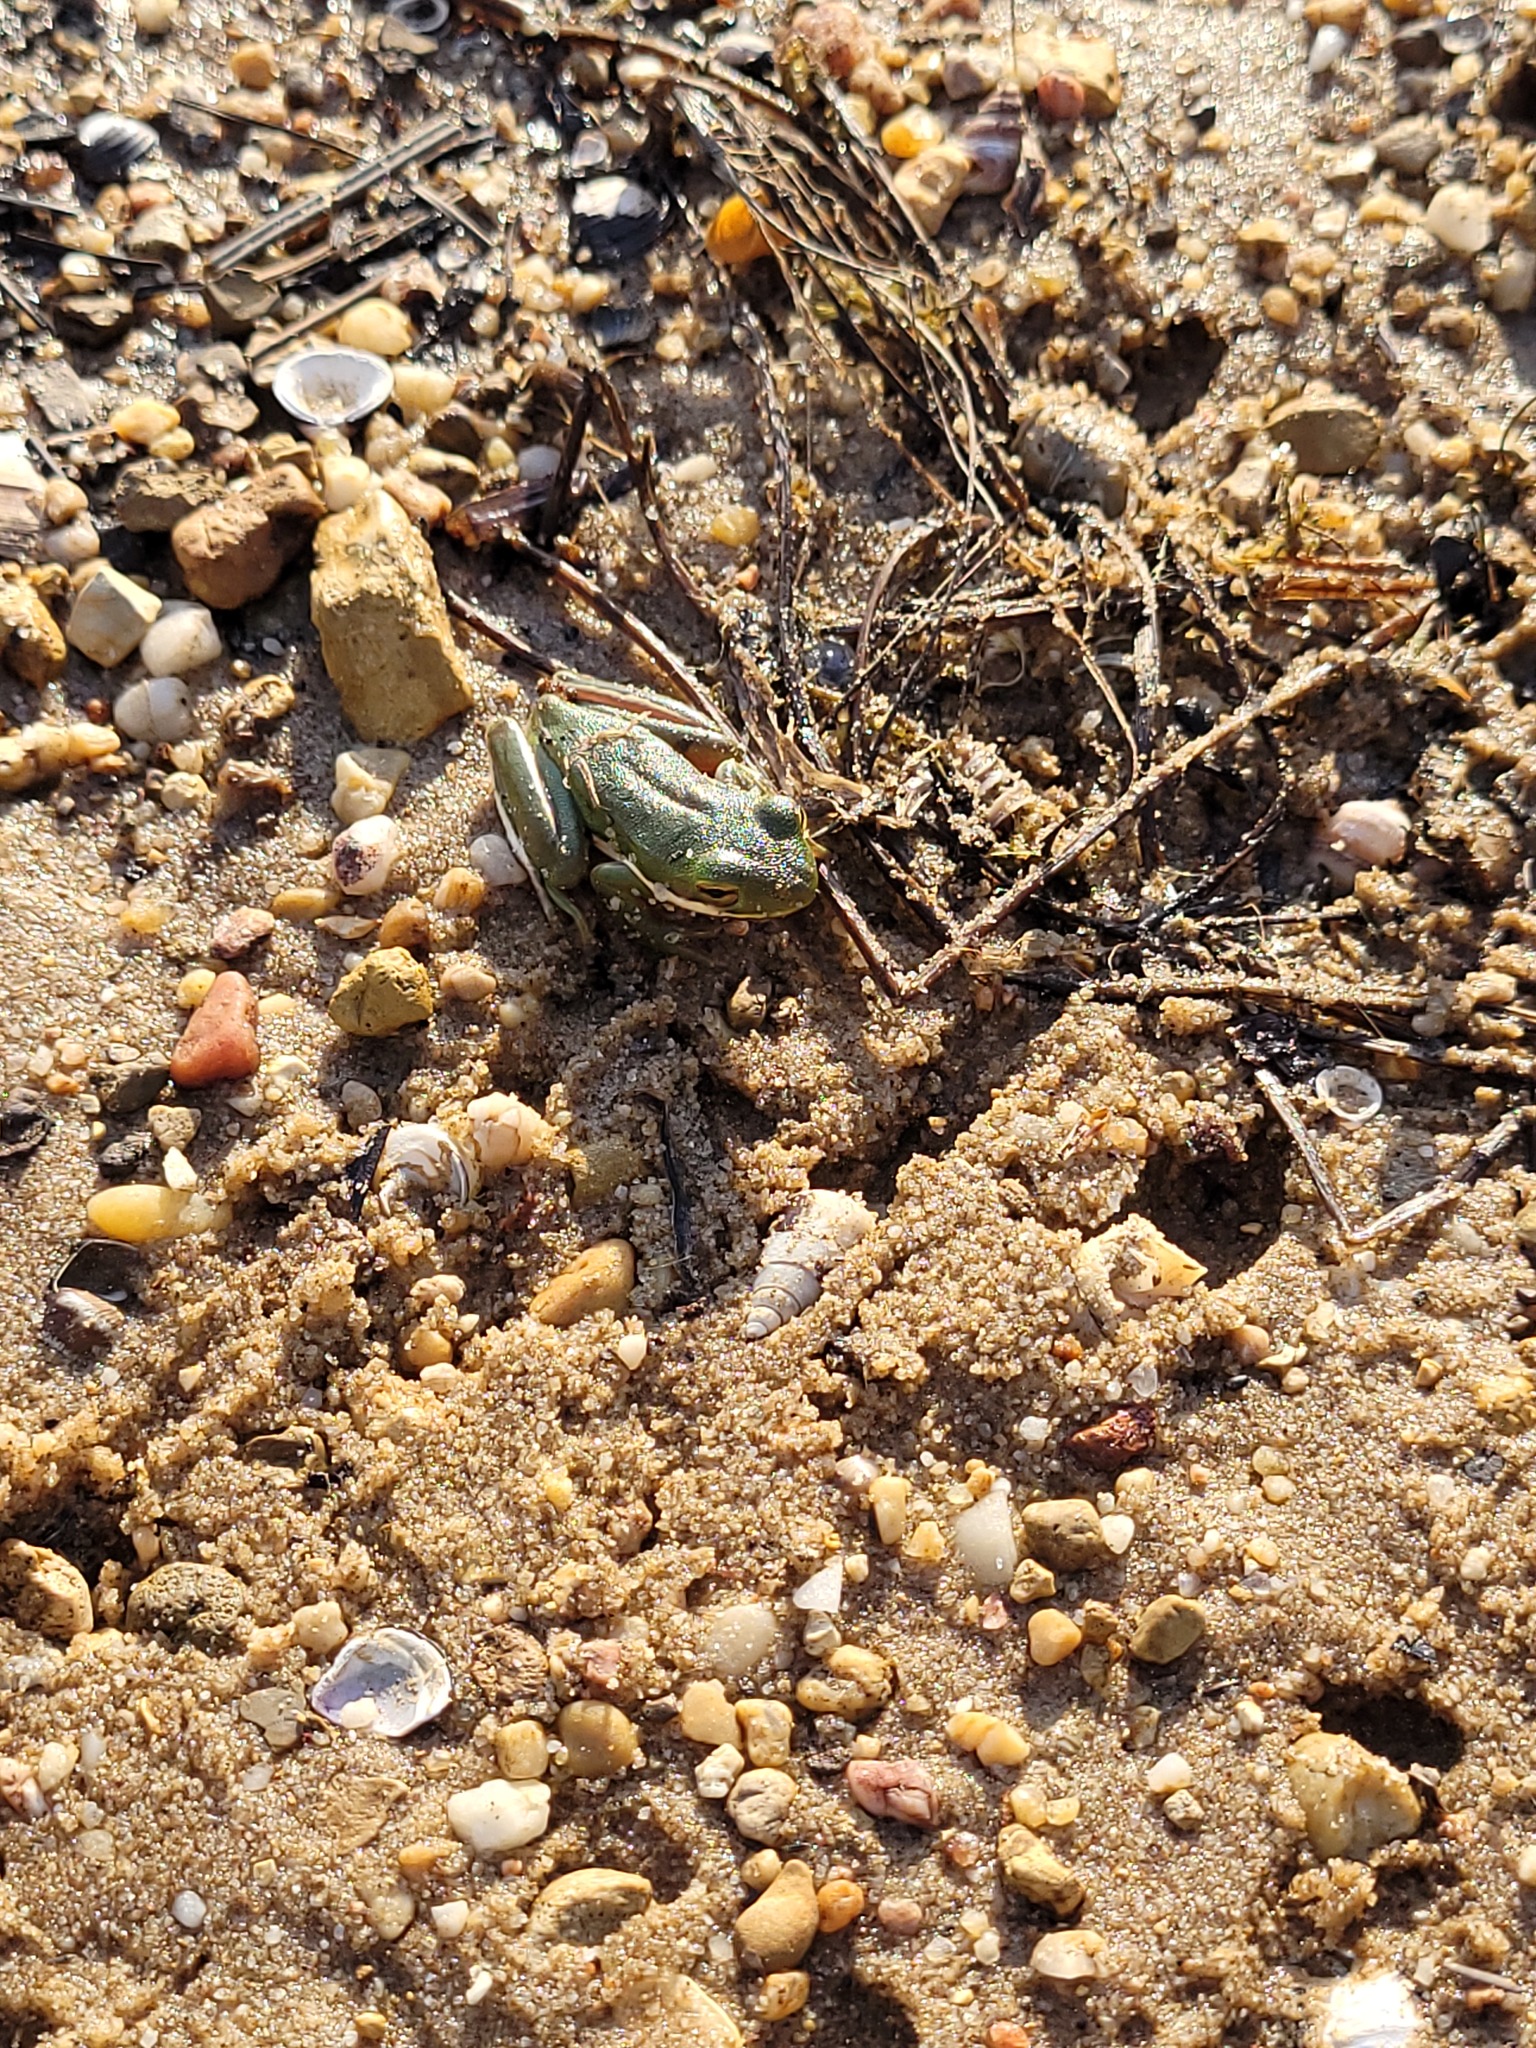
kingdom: Animalia
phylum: Chordata
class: Amphibia
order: Anura
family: Hylidae
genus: Dryophytes
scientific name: Dryophytes cinereus
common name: Green treefrog
